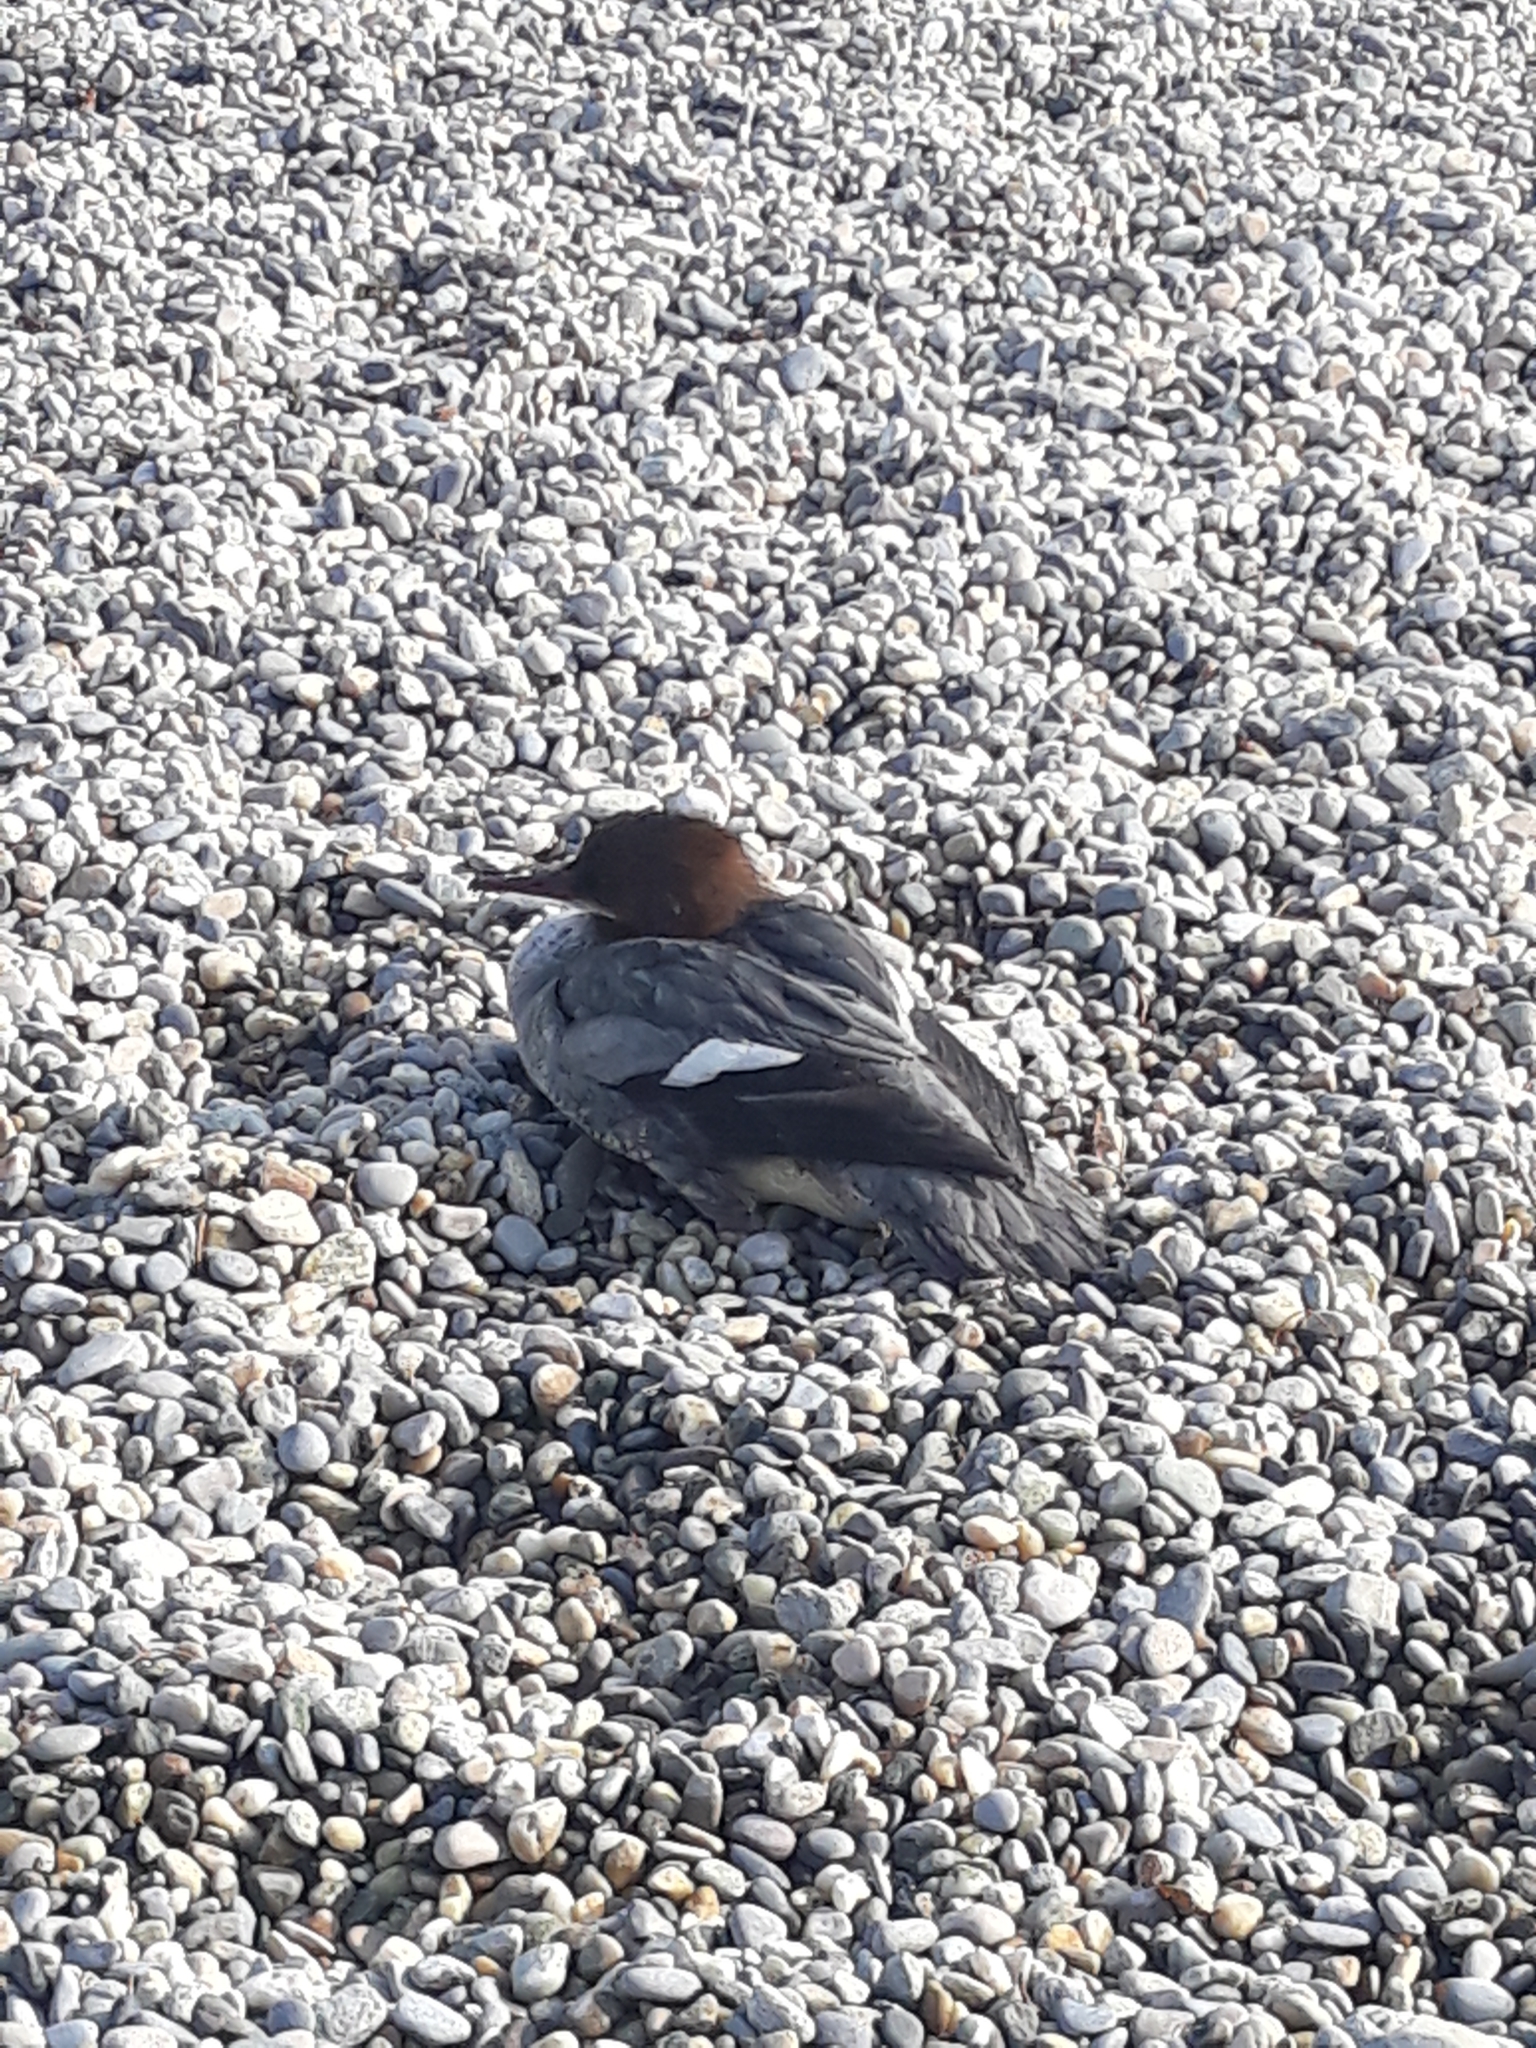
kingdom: Animalia
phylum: Chordata
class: Aves
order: Anseriformes
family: Anatidae
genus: Mergus
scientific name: Mergus merganser
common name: Common merganser
